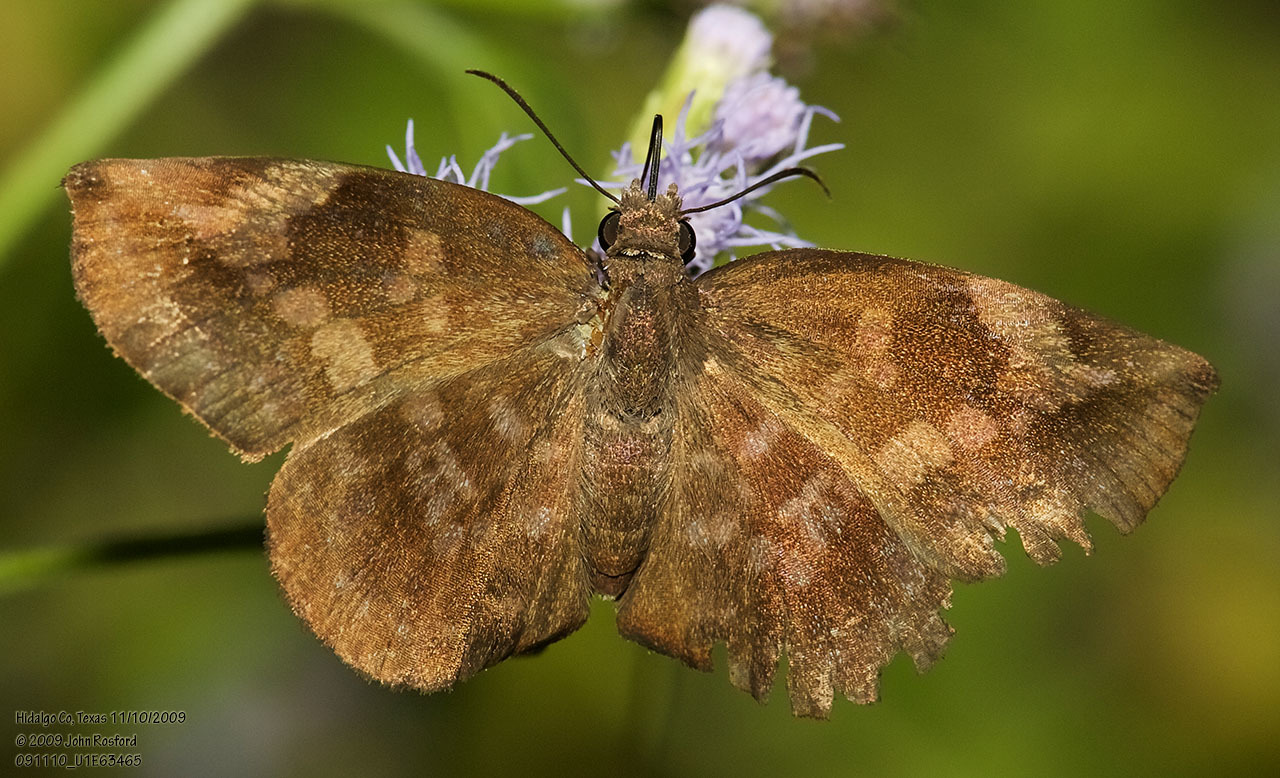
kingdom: Animalia
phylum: Arthropoda
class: Insecta
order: Lepidoptera
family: Hesperiidae
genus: Achlyodes
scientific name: Achlyodes thraso
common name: Sickle-winged skipper
